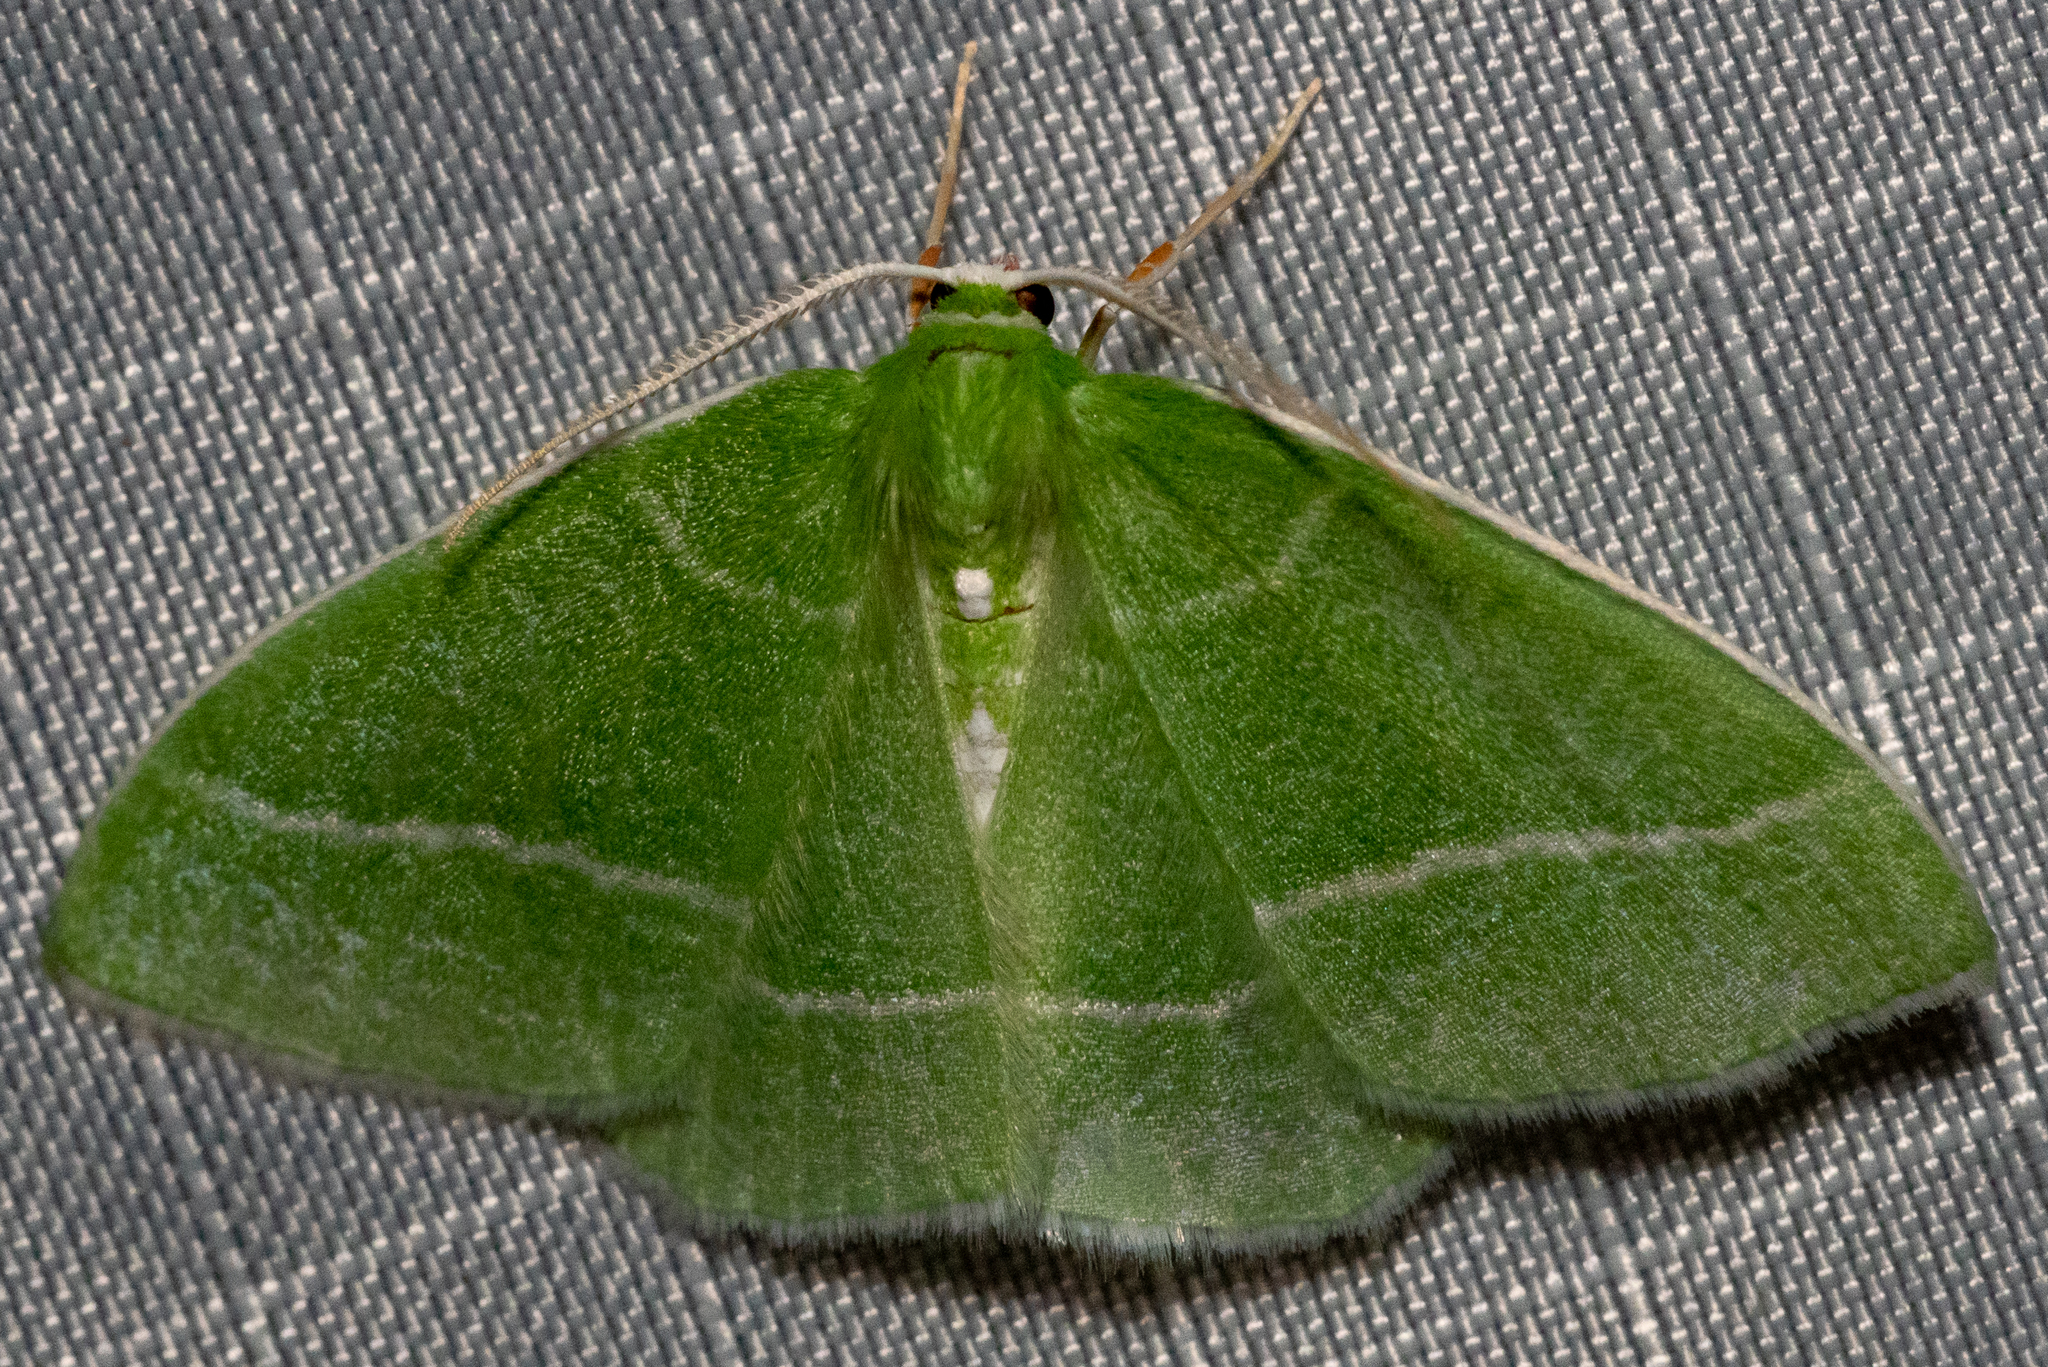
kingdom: Animalia
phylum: Arthropoda
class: Insecta
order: Lepidoptera
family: Geometridae
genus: Nemoria
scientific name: Nemoria mimosaria
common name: White-fringed emerald
